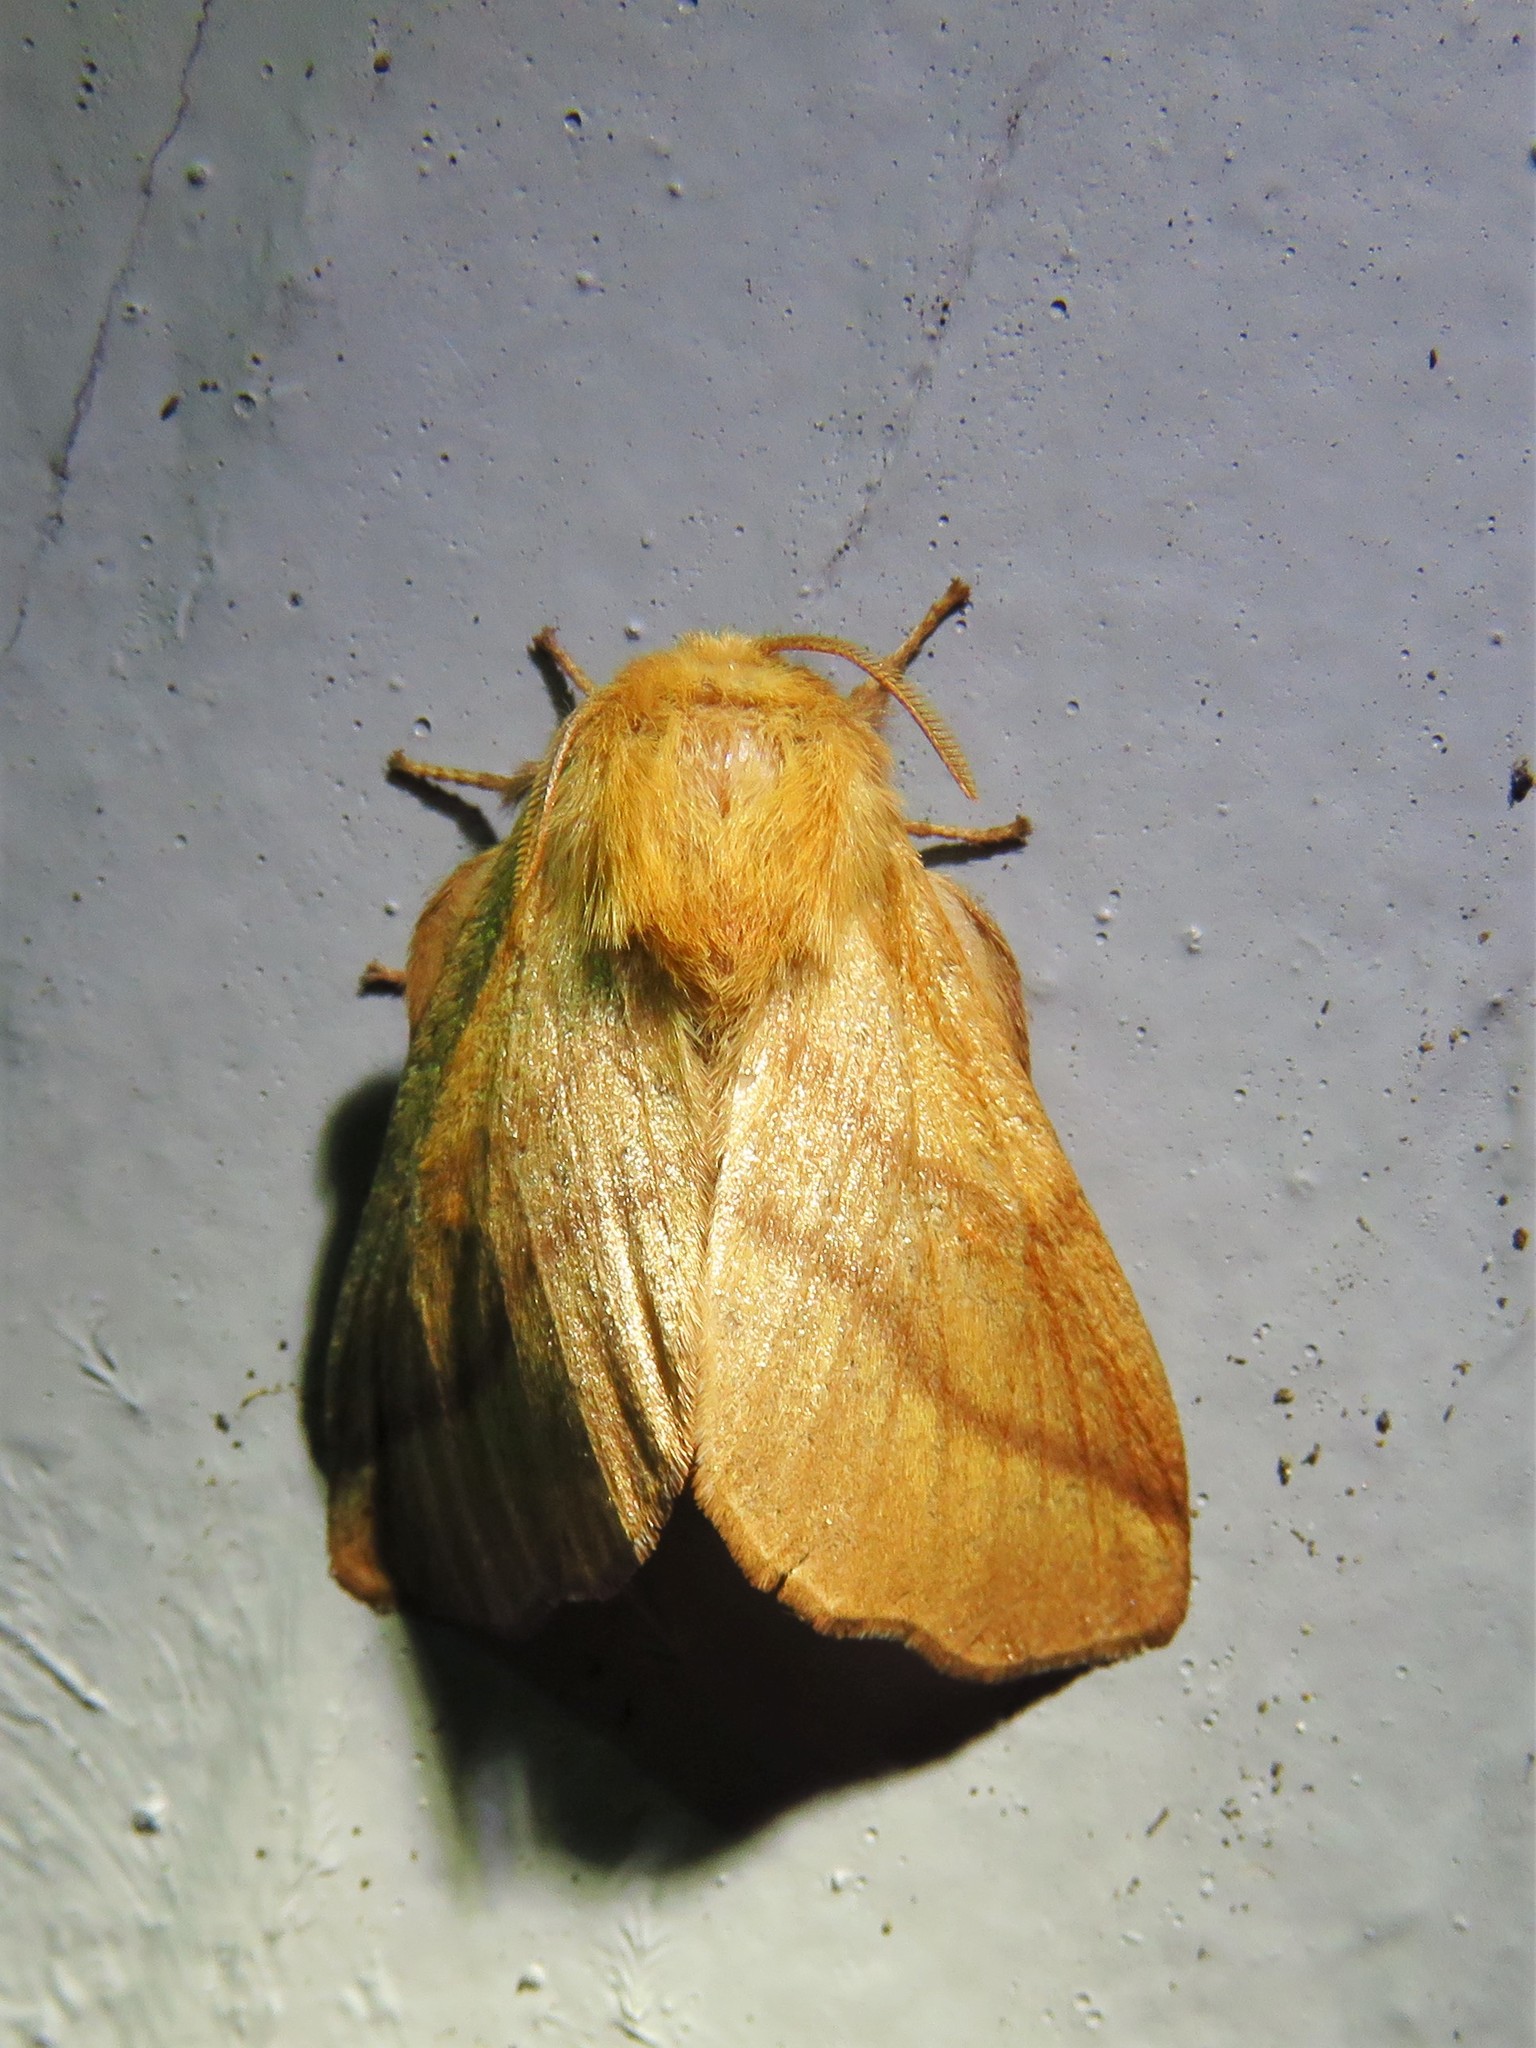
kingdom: Animalia
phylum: Arthropoda
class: Insecta
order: Lepidoptera
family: Lasiocampidae
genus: Malacosoma
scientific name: Malacosoma disstria
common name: Forest tent caterpillar
